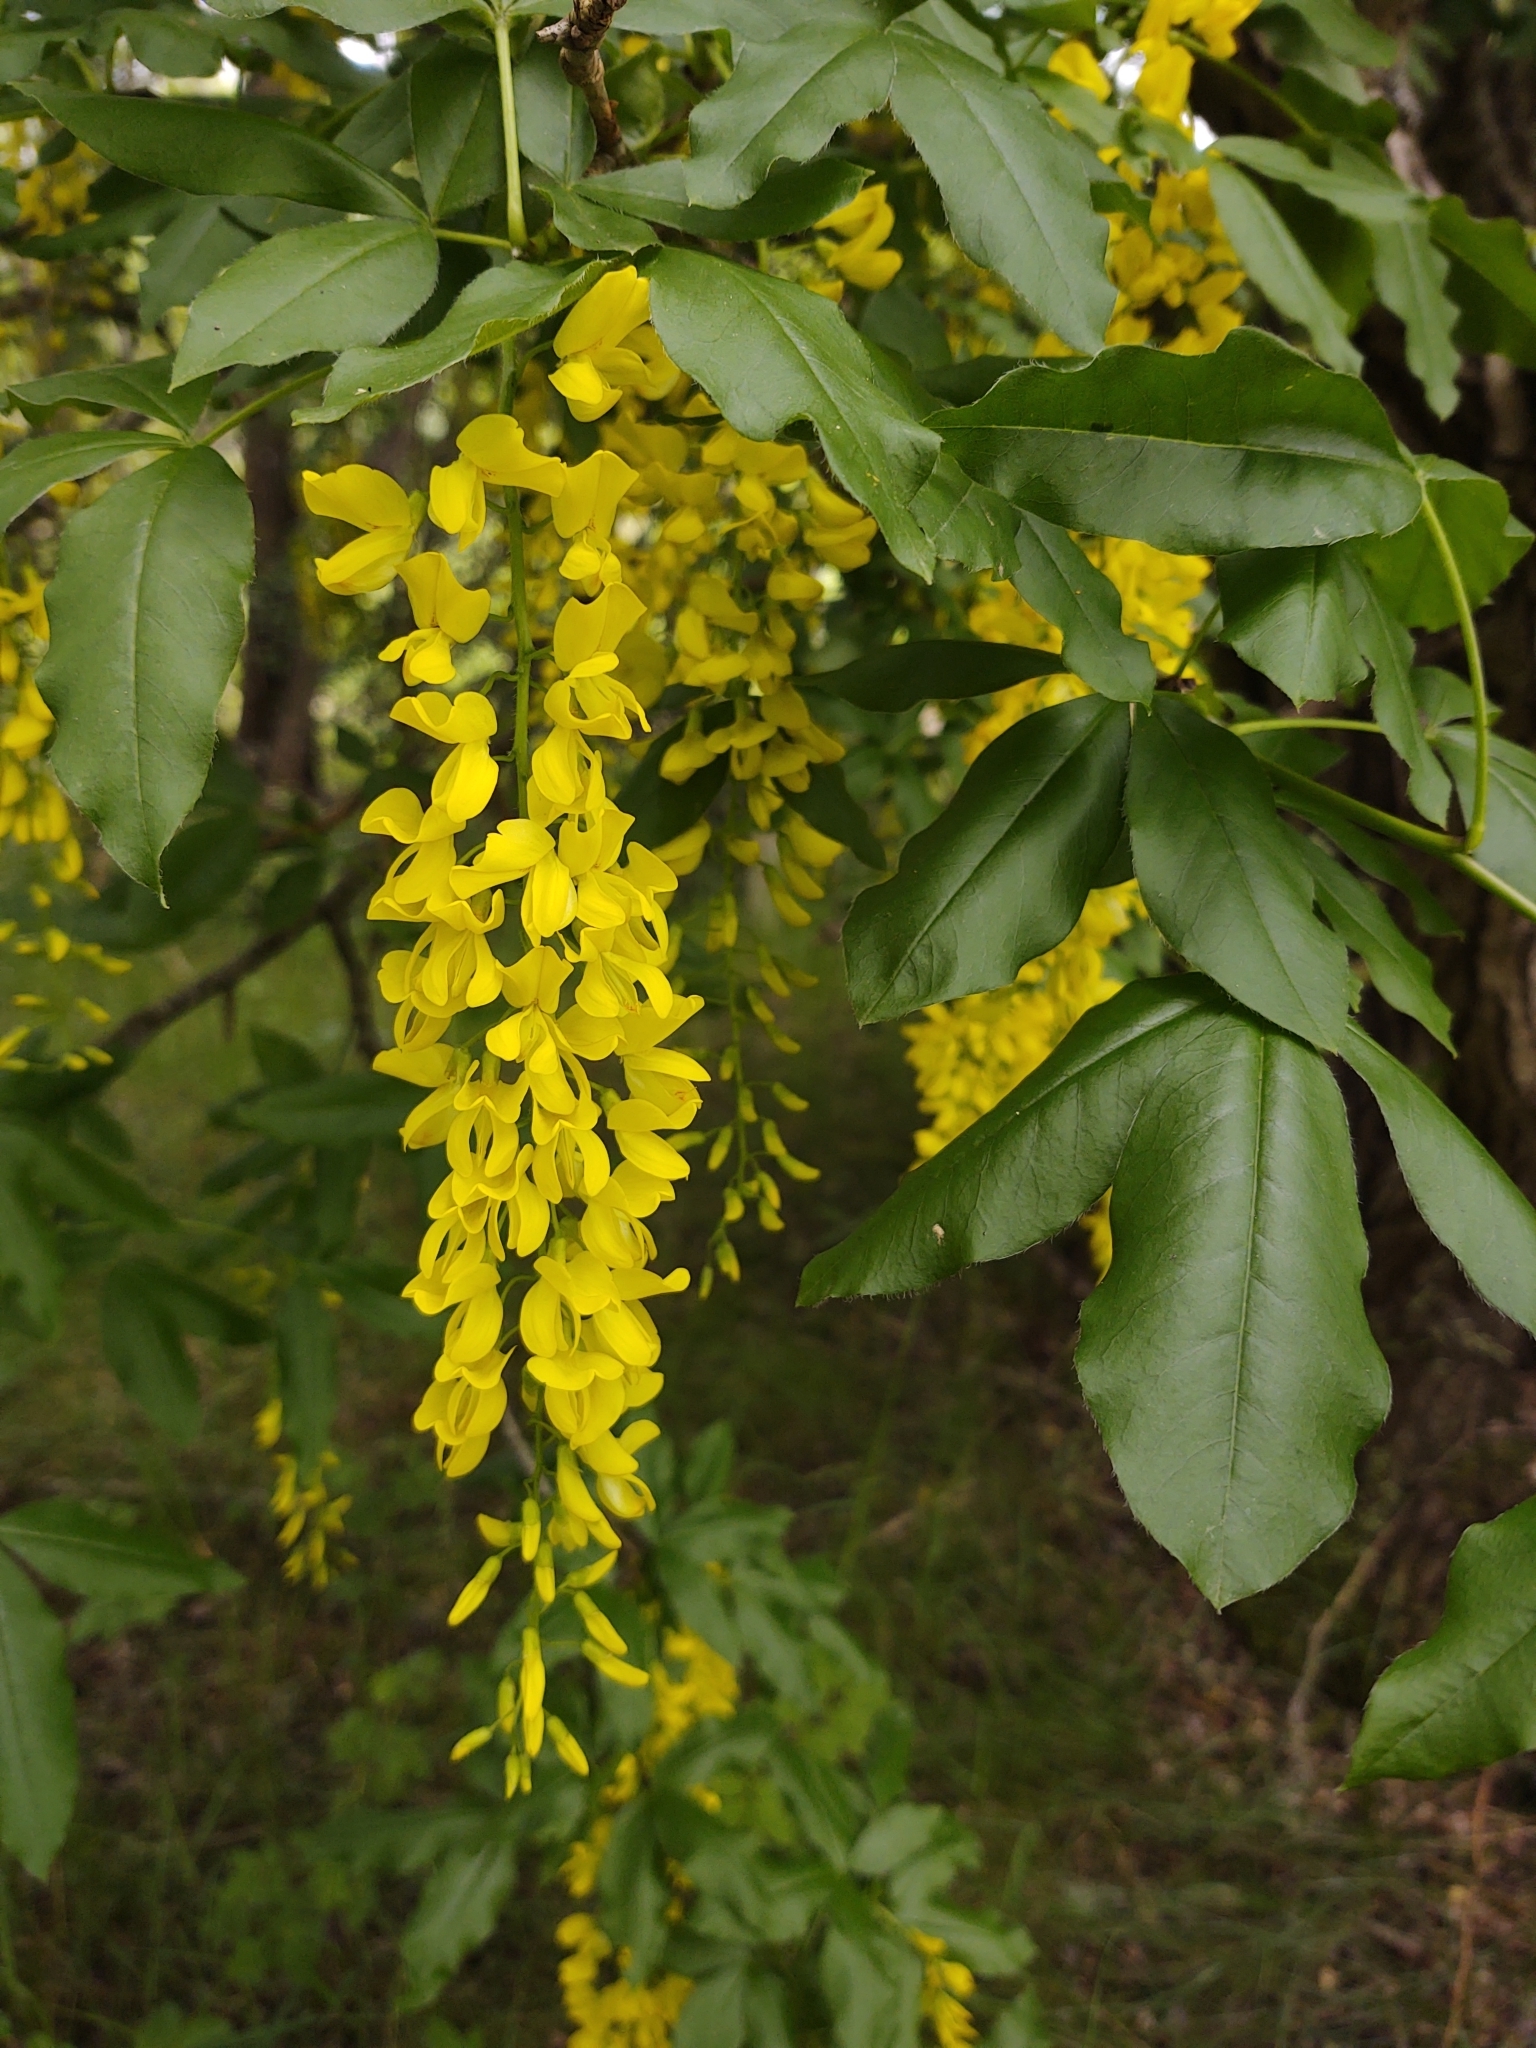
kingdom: Plantae
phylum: Tracheophyta
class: Magnoliopsida
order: Fabales
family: Fabaceae
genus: Laburnum
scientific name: Laburnum anagyroides
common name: Laburnum
